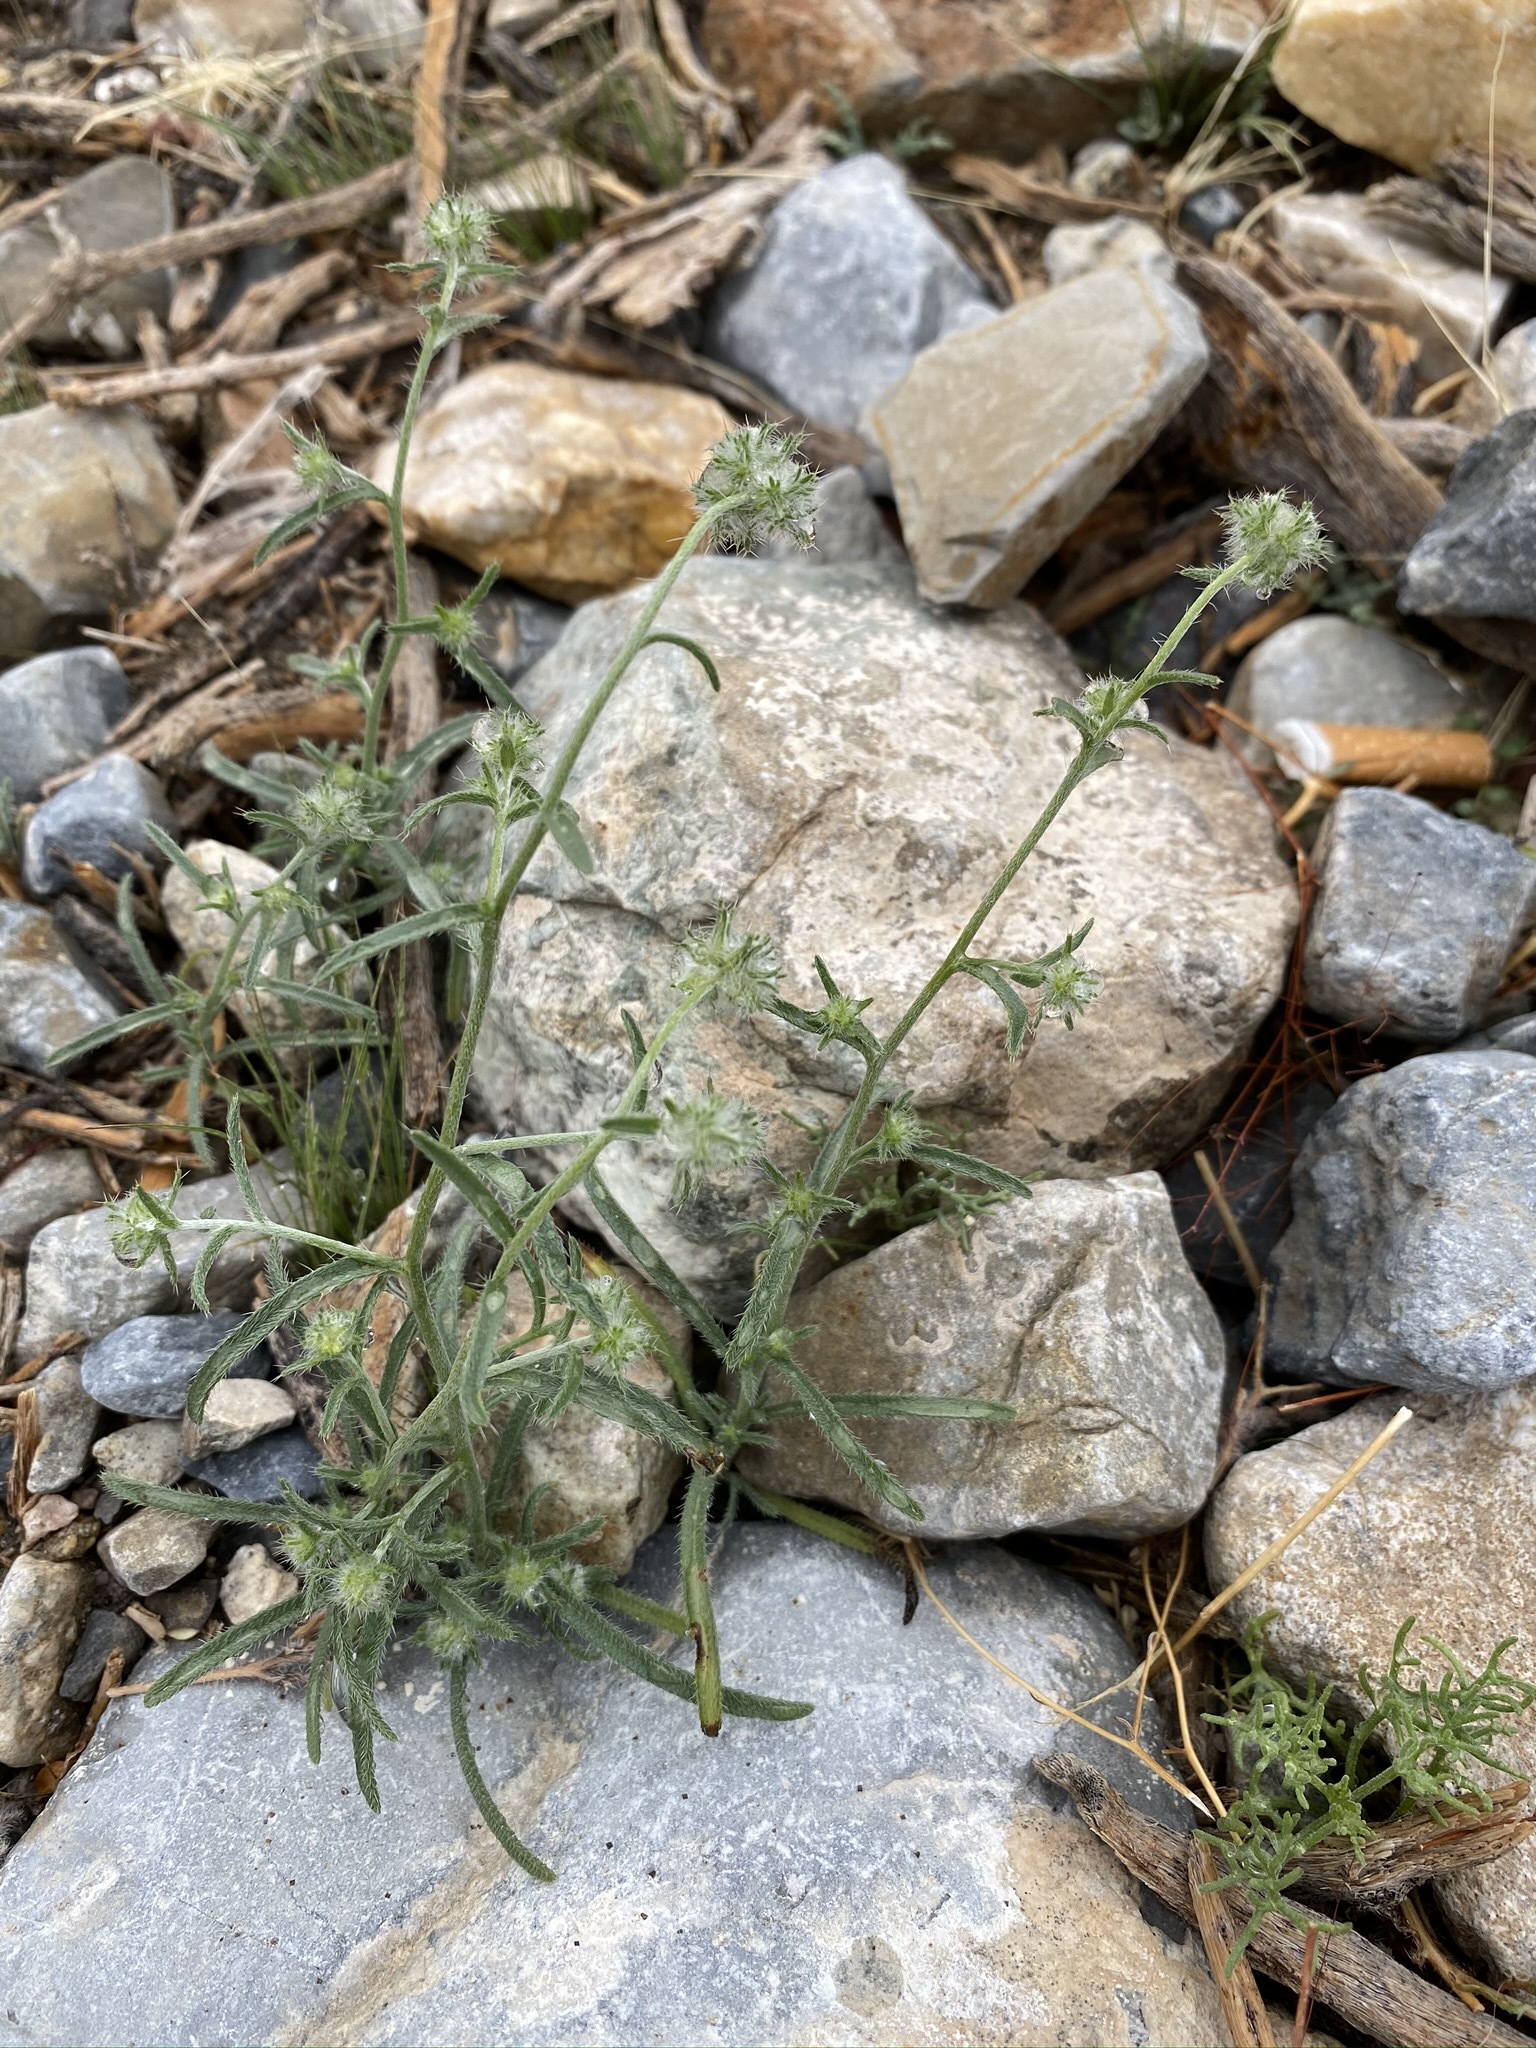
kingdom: Plantae
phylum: Tracheophyta
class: Magnoliopsida
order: Boraginales
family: Boraginaceae
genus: Cryptantha
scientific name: Cryptantha nevadensis
